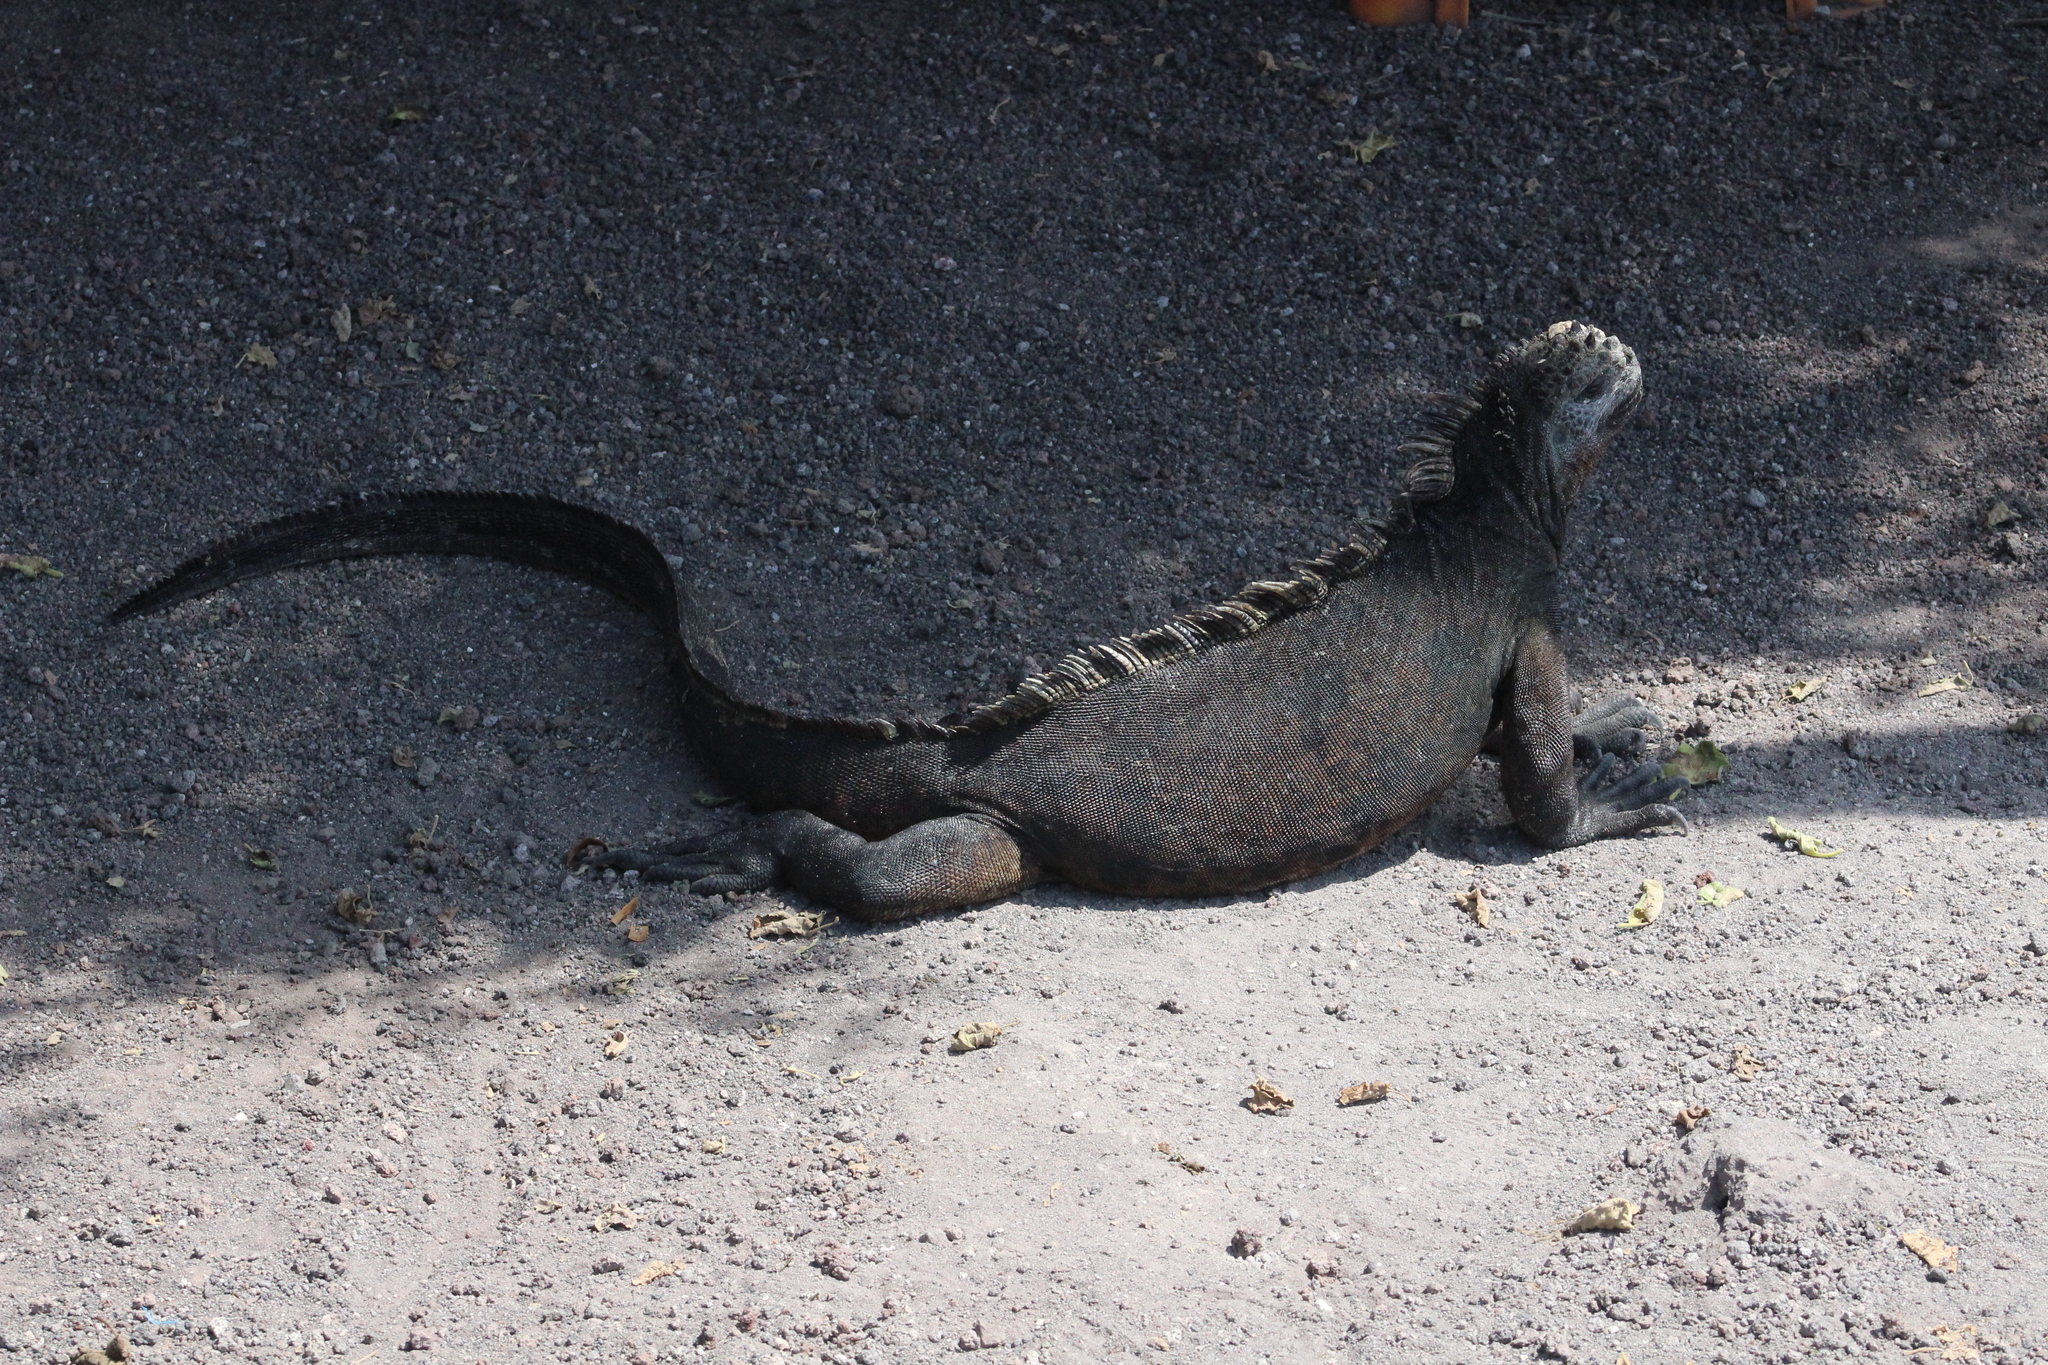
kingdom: Animalia
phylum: Chordata
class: Squamata
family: Iguanidae
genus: Amblyrhynchus
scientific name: Amblyrhynchus cristatus
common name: Marine iguana
